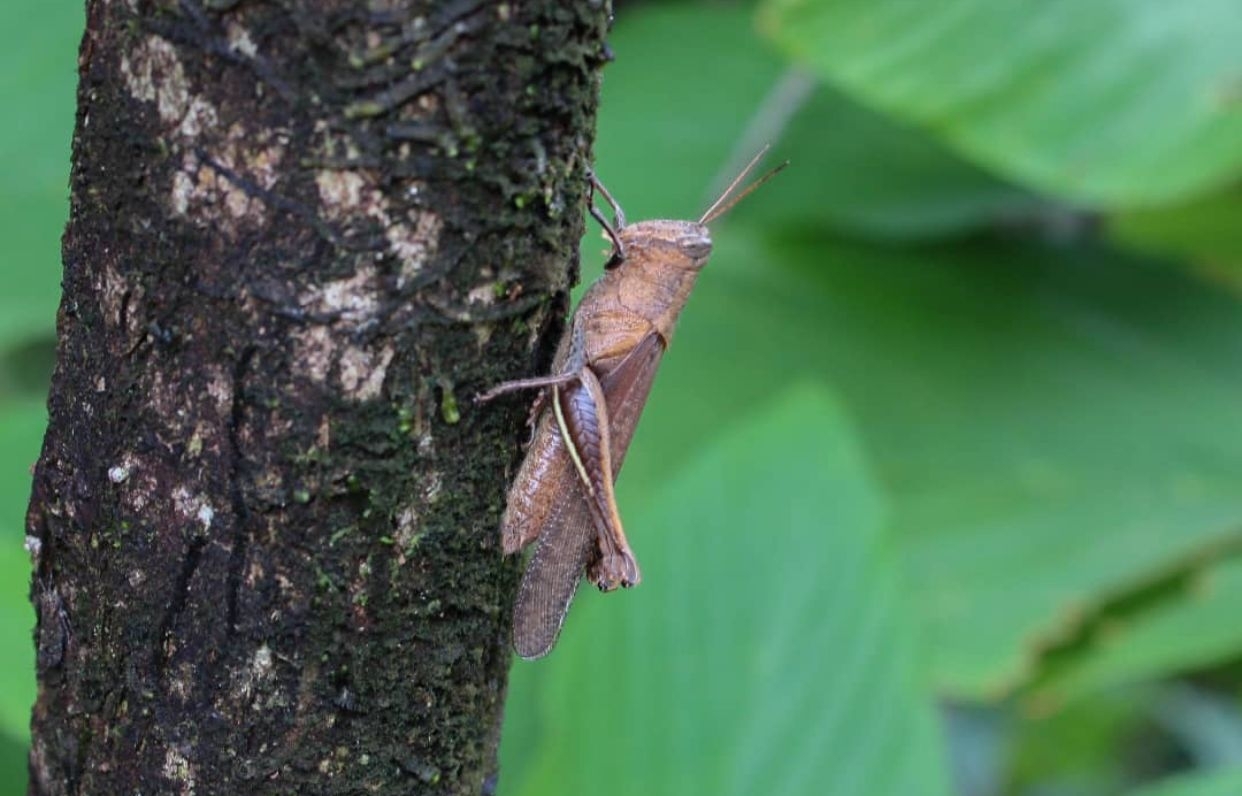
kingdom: Animalia
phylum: Arthropoda
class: Insecta
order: Orthoptera
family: Acrididae
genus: Abracris
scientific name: Abracris flavolineata
